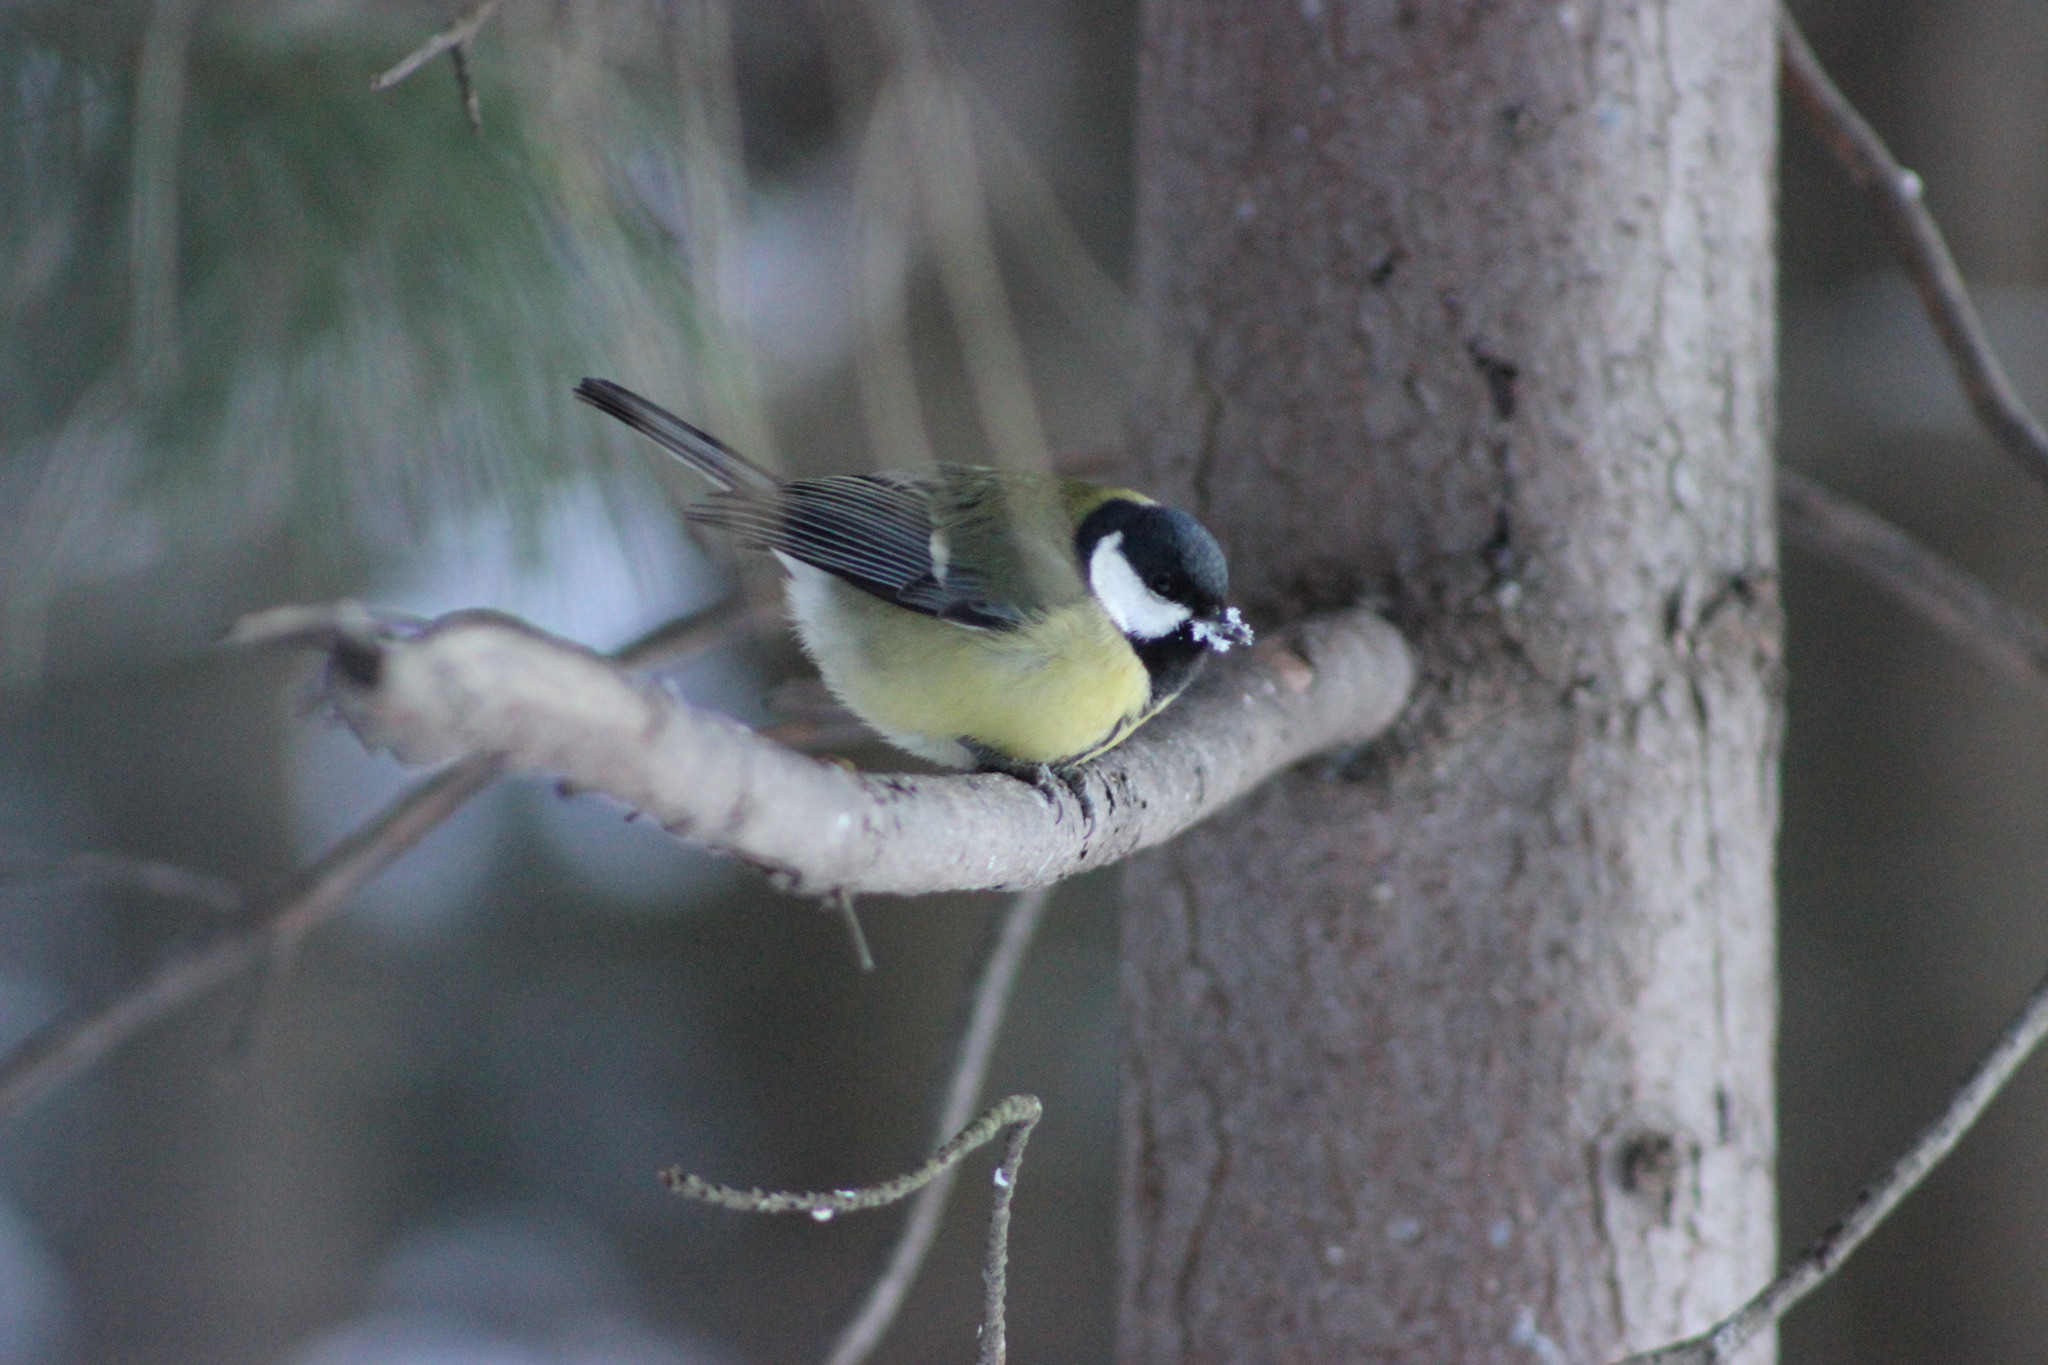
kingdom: Animalia
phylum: Chordata
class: Aves
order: Passeriformes
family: Paridae
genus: Parus
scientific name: Parus major
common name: Great tit
